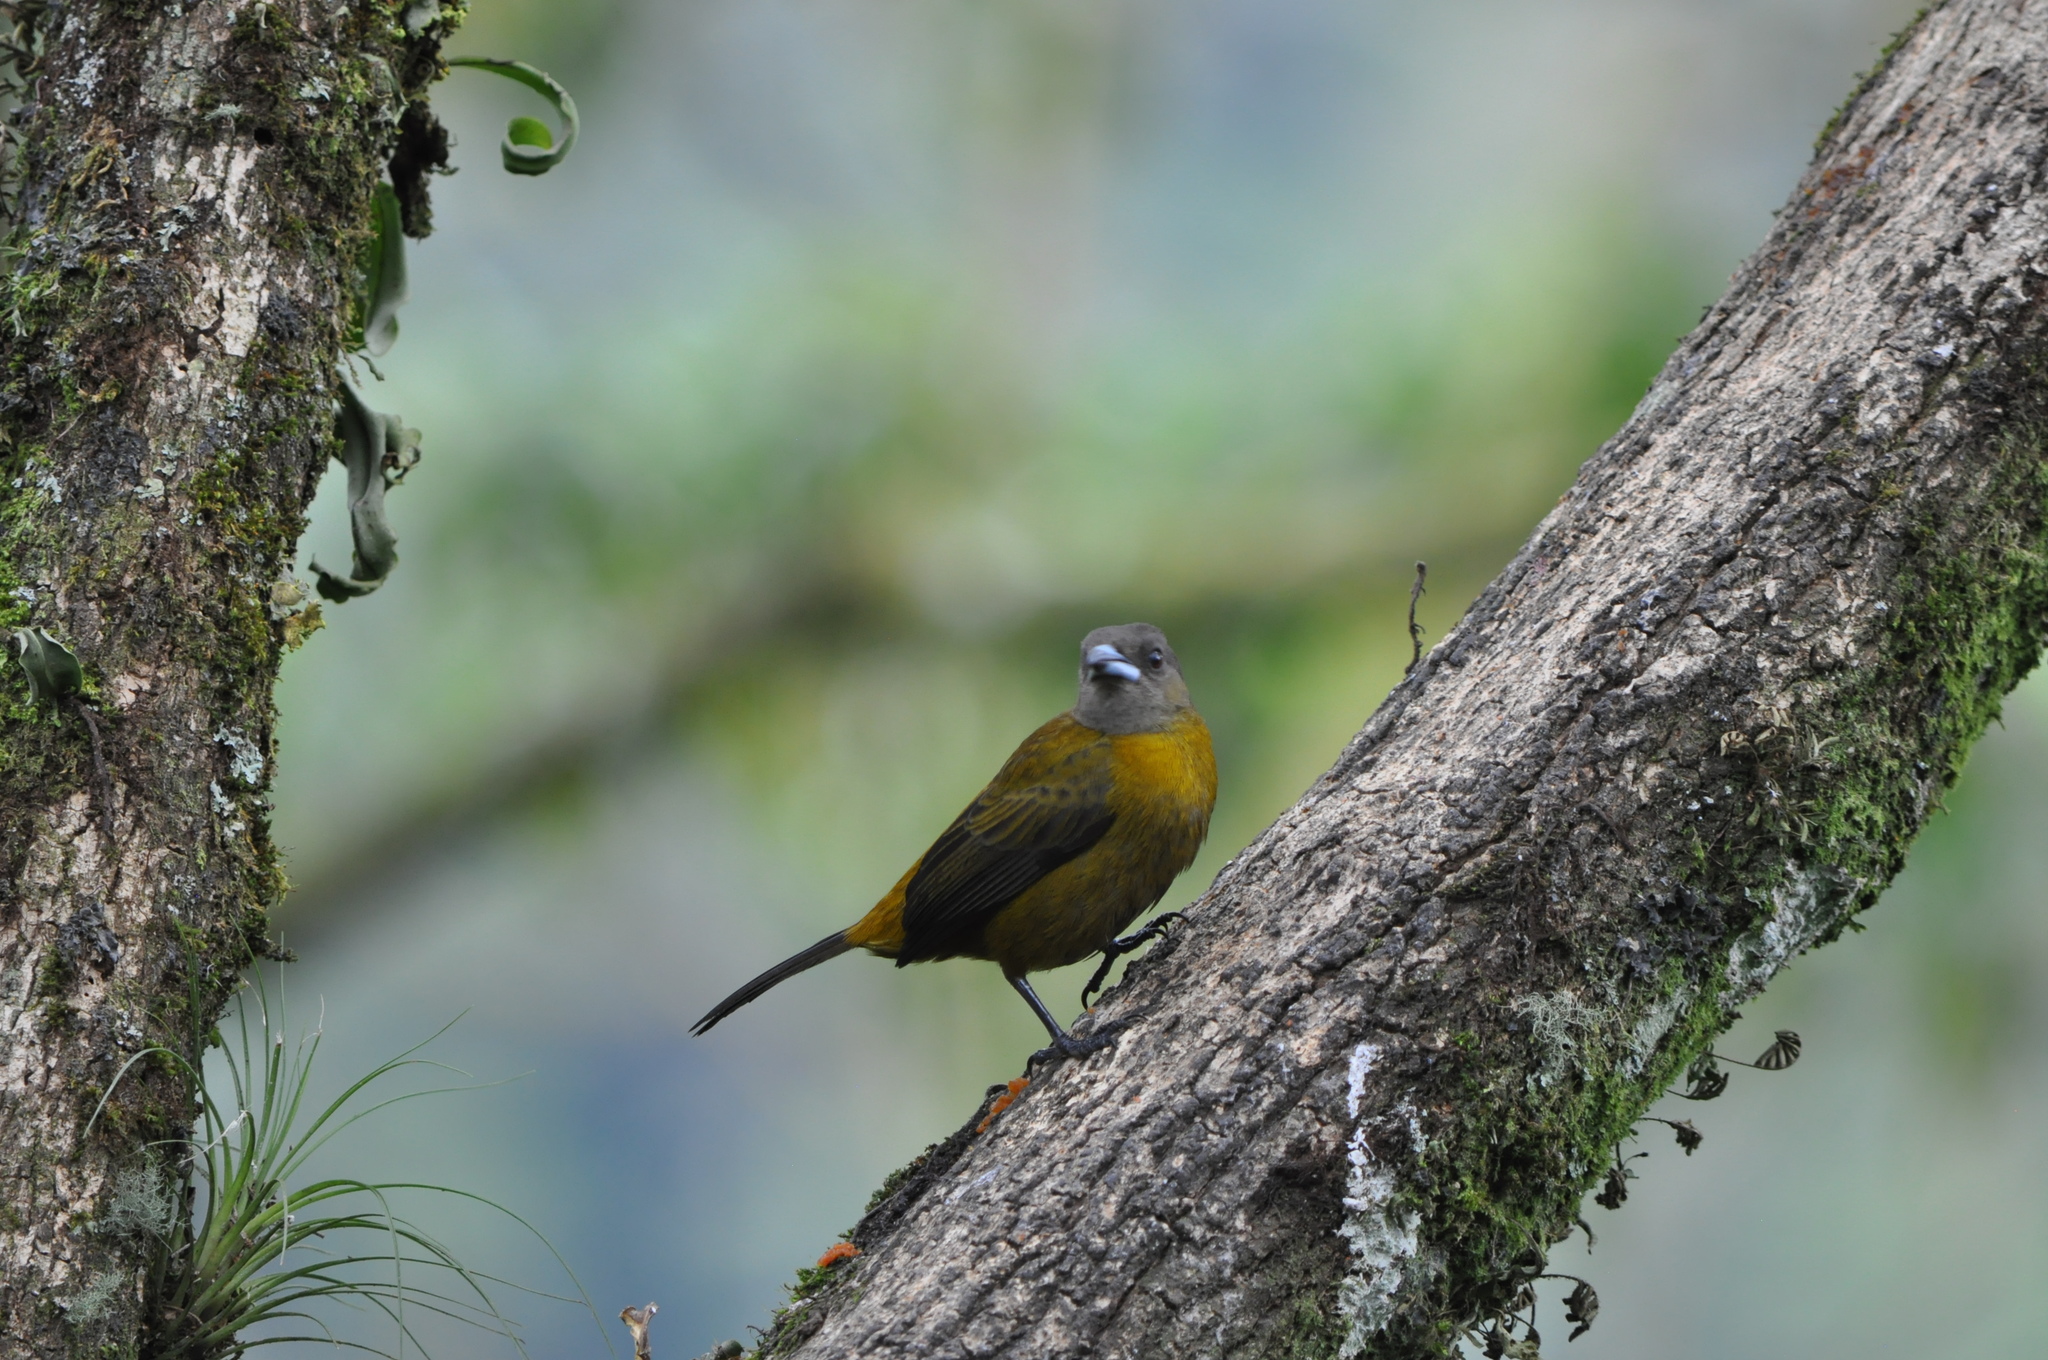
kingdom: Animalia
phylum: Chordata
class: Aves
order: Passeriformes
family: Thraupidae
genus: Ramphocelus
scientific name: Ramphocelus passerinii
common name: Passerini's tanager
